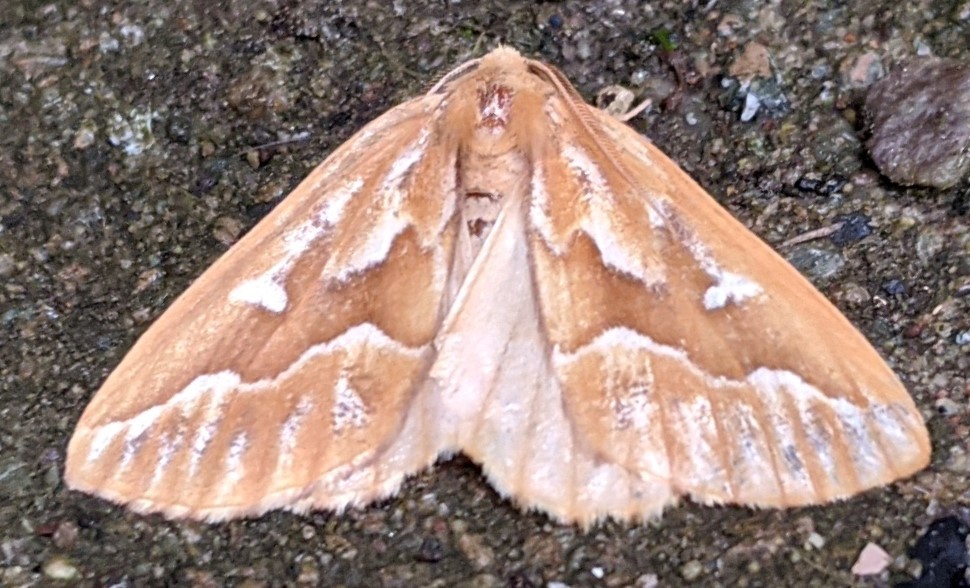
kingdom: Animalia
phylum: Arthropoda
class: Insecta
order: Lepidoptera
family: Geometridae
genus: Caripeta
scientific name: Caripeta piniata
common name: Northern pine looper moth
